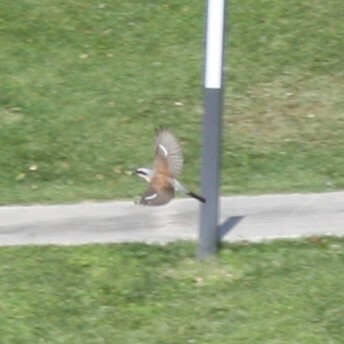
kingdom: Animalia
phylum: Chordata
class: Aves
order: Passeriformes
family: Laniidae
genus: Lanius
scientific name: Lanius collurio
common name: Red-backed shrike
